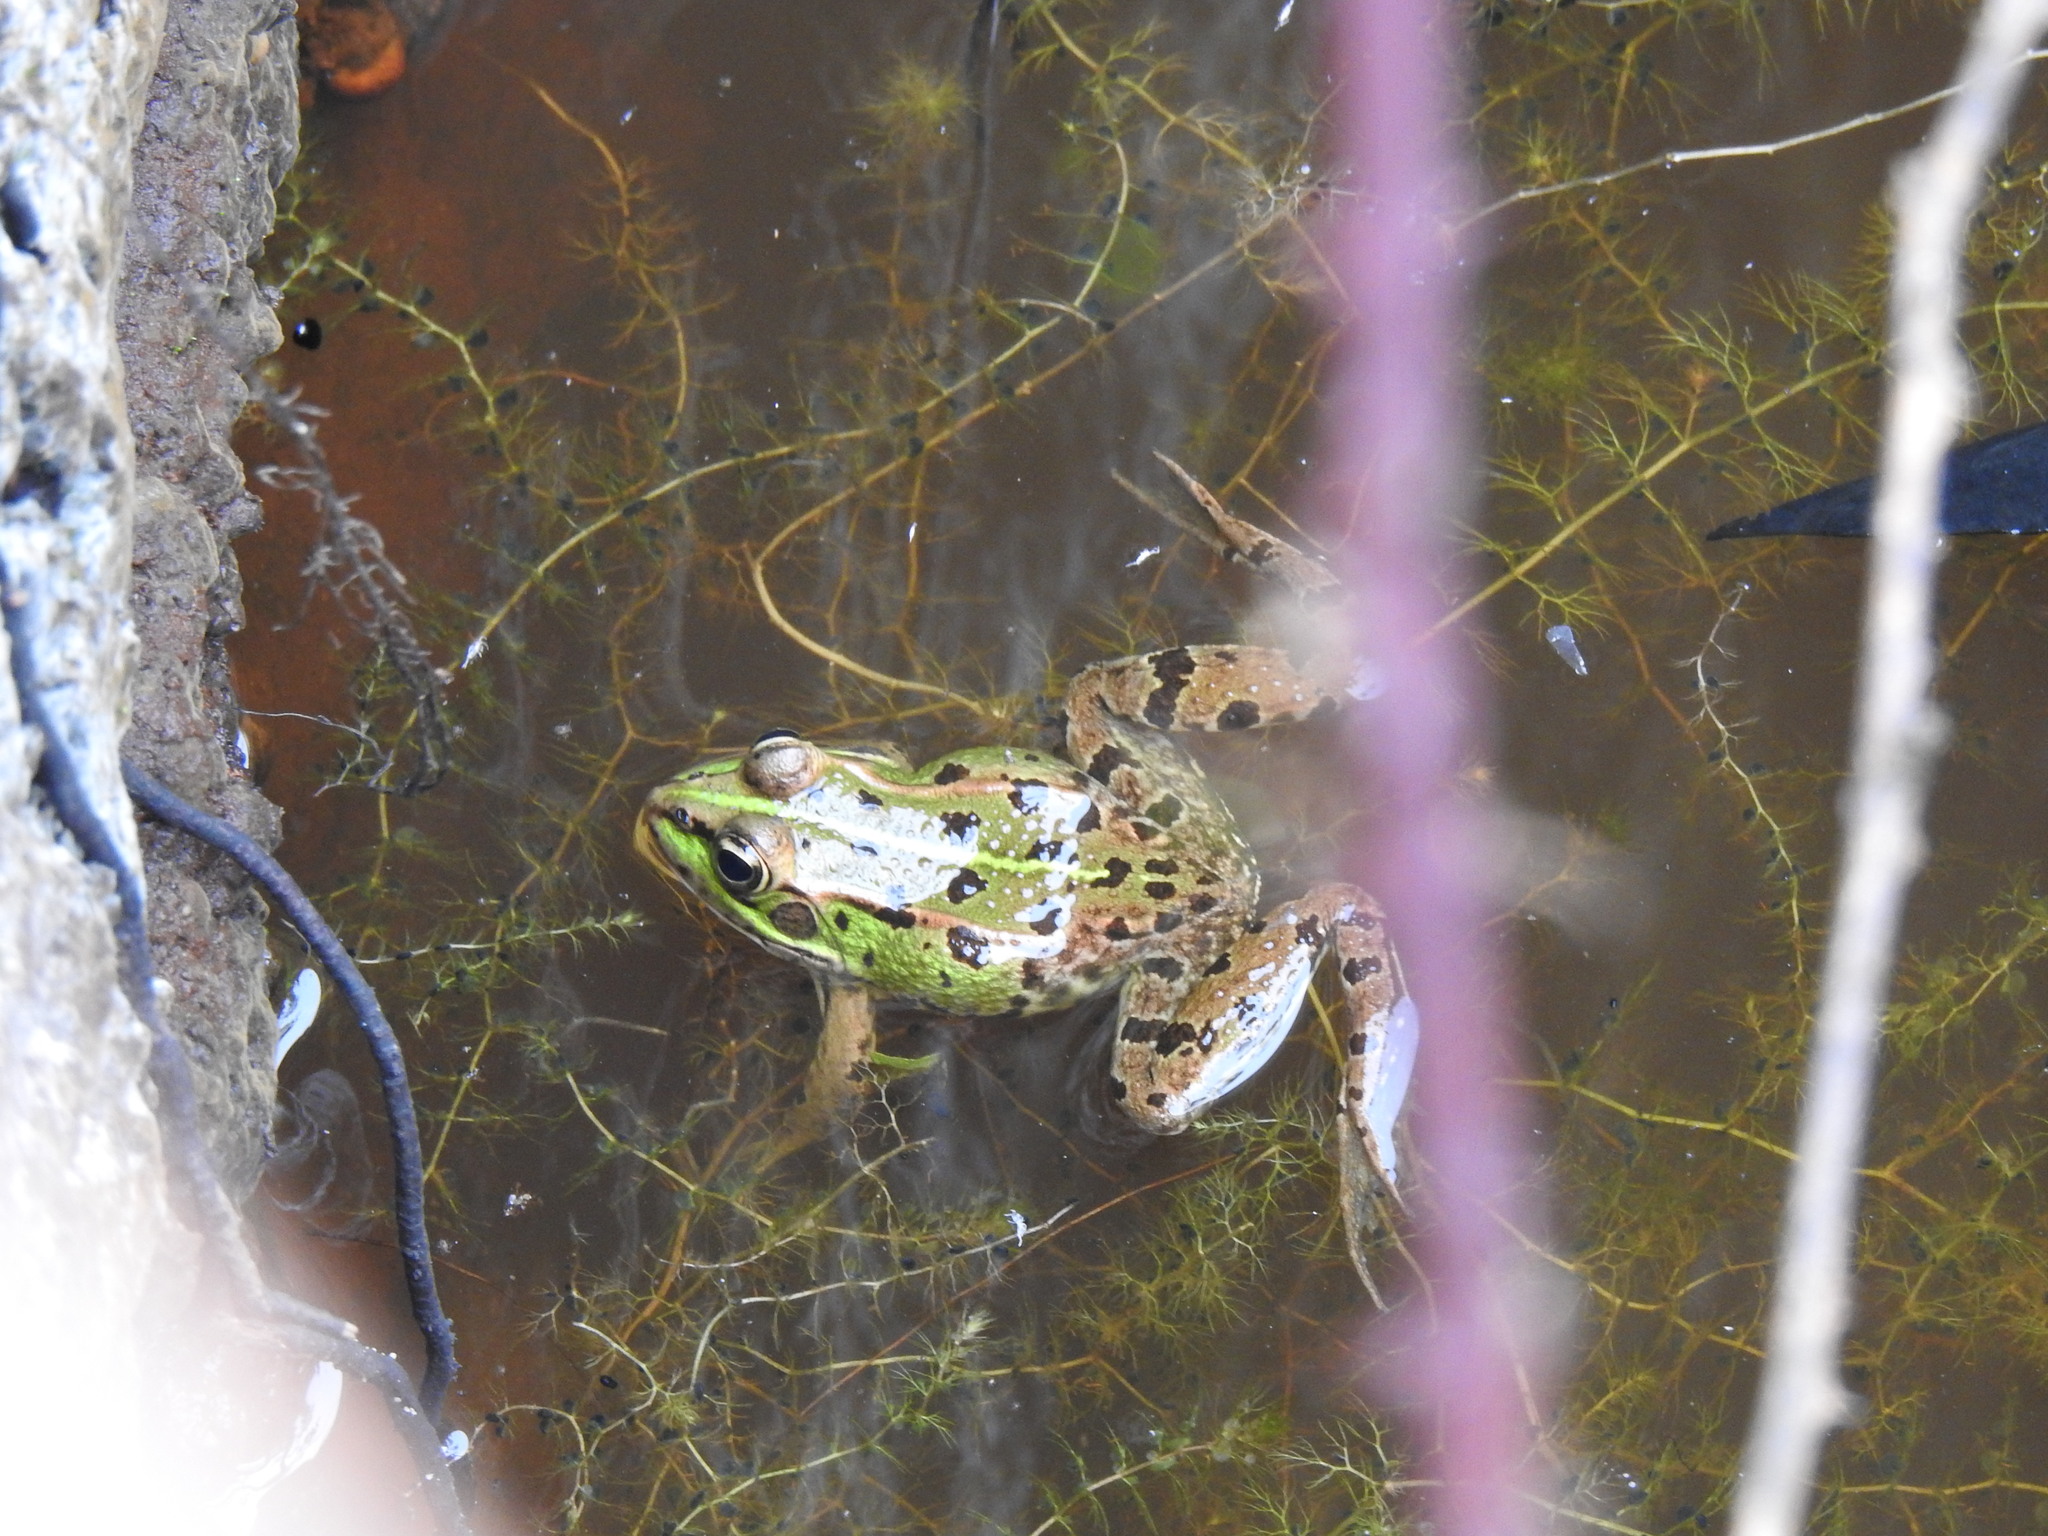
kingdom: Animalia
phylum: Chordata
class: Amphibia
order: Anura
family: Ranidae
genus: Pelophylax
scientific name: Pelophylax perezi
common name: Perez's frog
